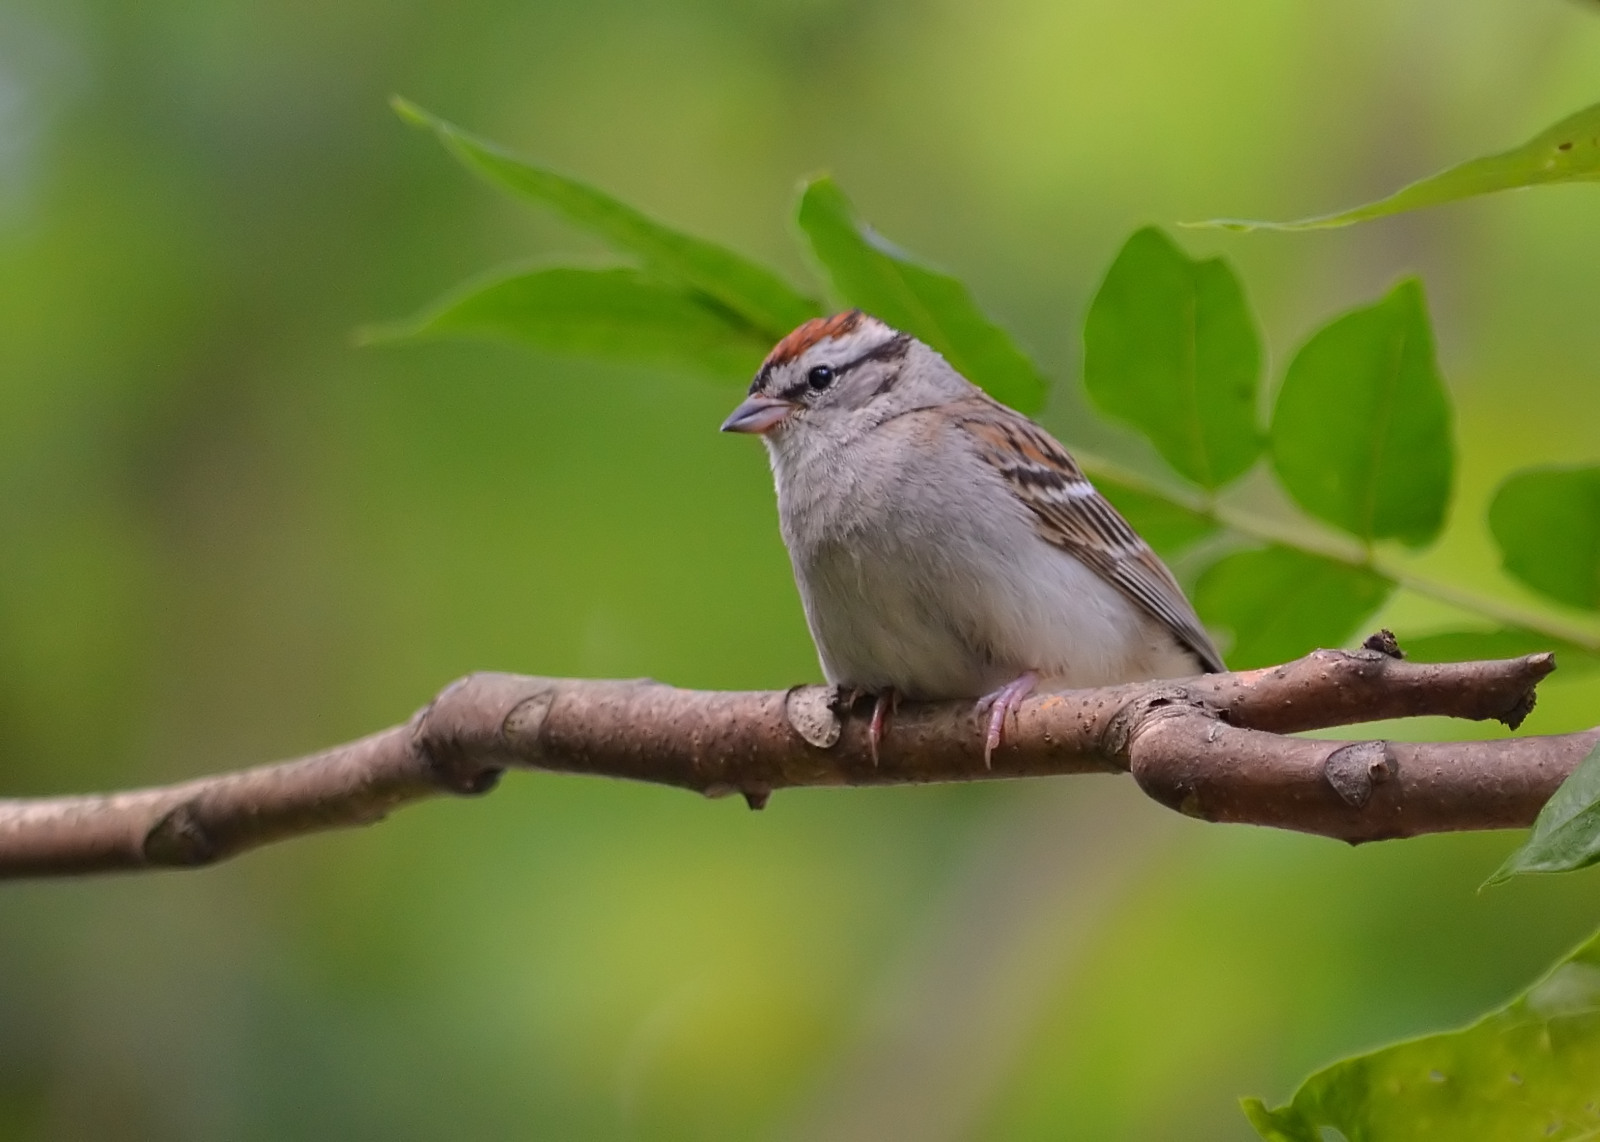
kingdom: Animalia
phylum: Chordata
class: Aves
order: Passeriformes
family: Passerellidae
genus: Spizella
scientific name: Spizella passerina
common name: Chipping sparrow
